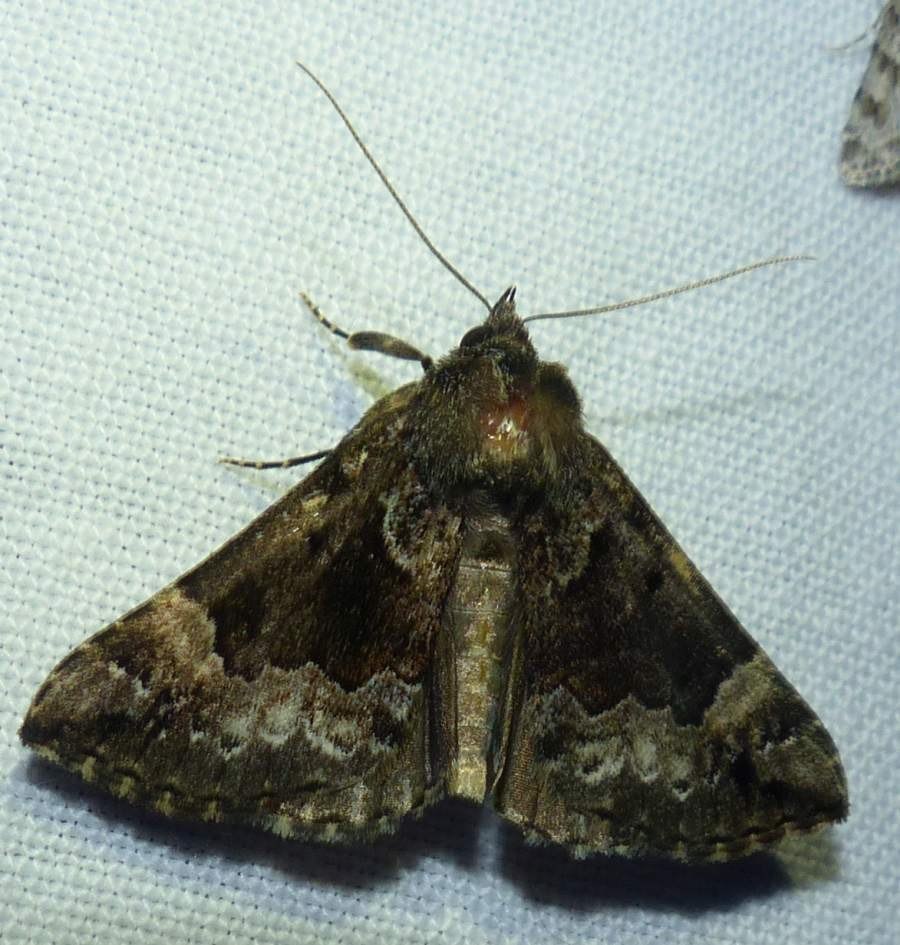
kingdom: Animalia
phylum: Arthropoda
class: Insecta
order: Lepidoptera
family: Erebidae
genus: Hypena
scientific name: Hypena palparia
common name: Mottled bomolocha moth
